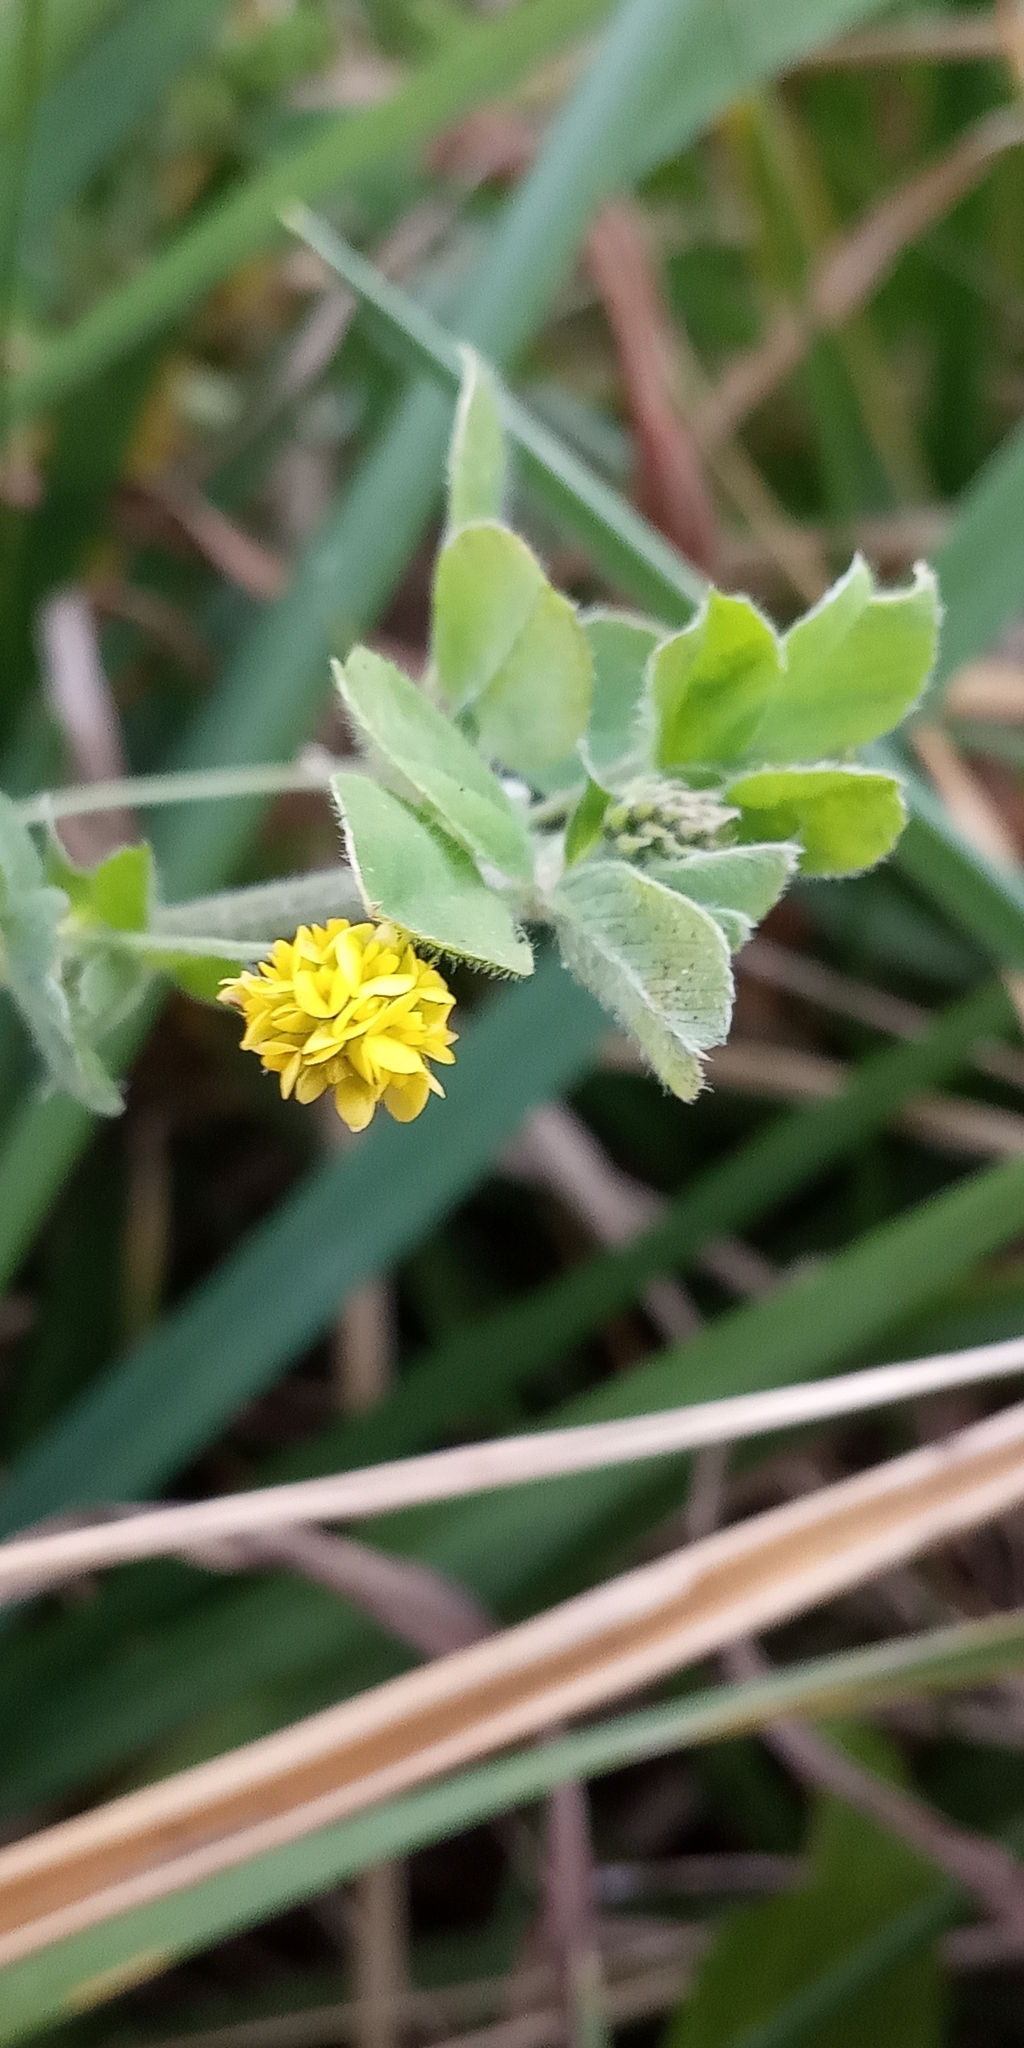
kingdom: Plantae
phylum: Tracheophyta
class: Magnoliopsida
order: Fabales
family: Fabaceae
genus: Medicago
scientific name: Medicago lupulina
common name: Black medick
